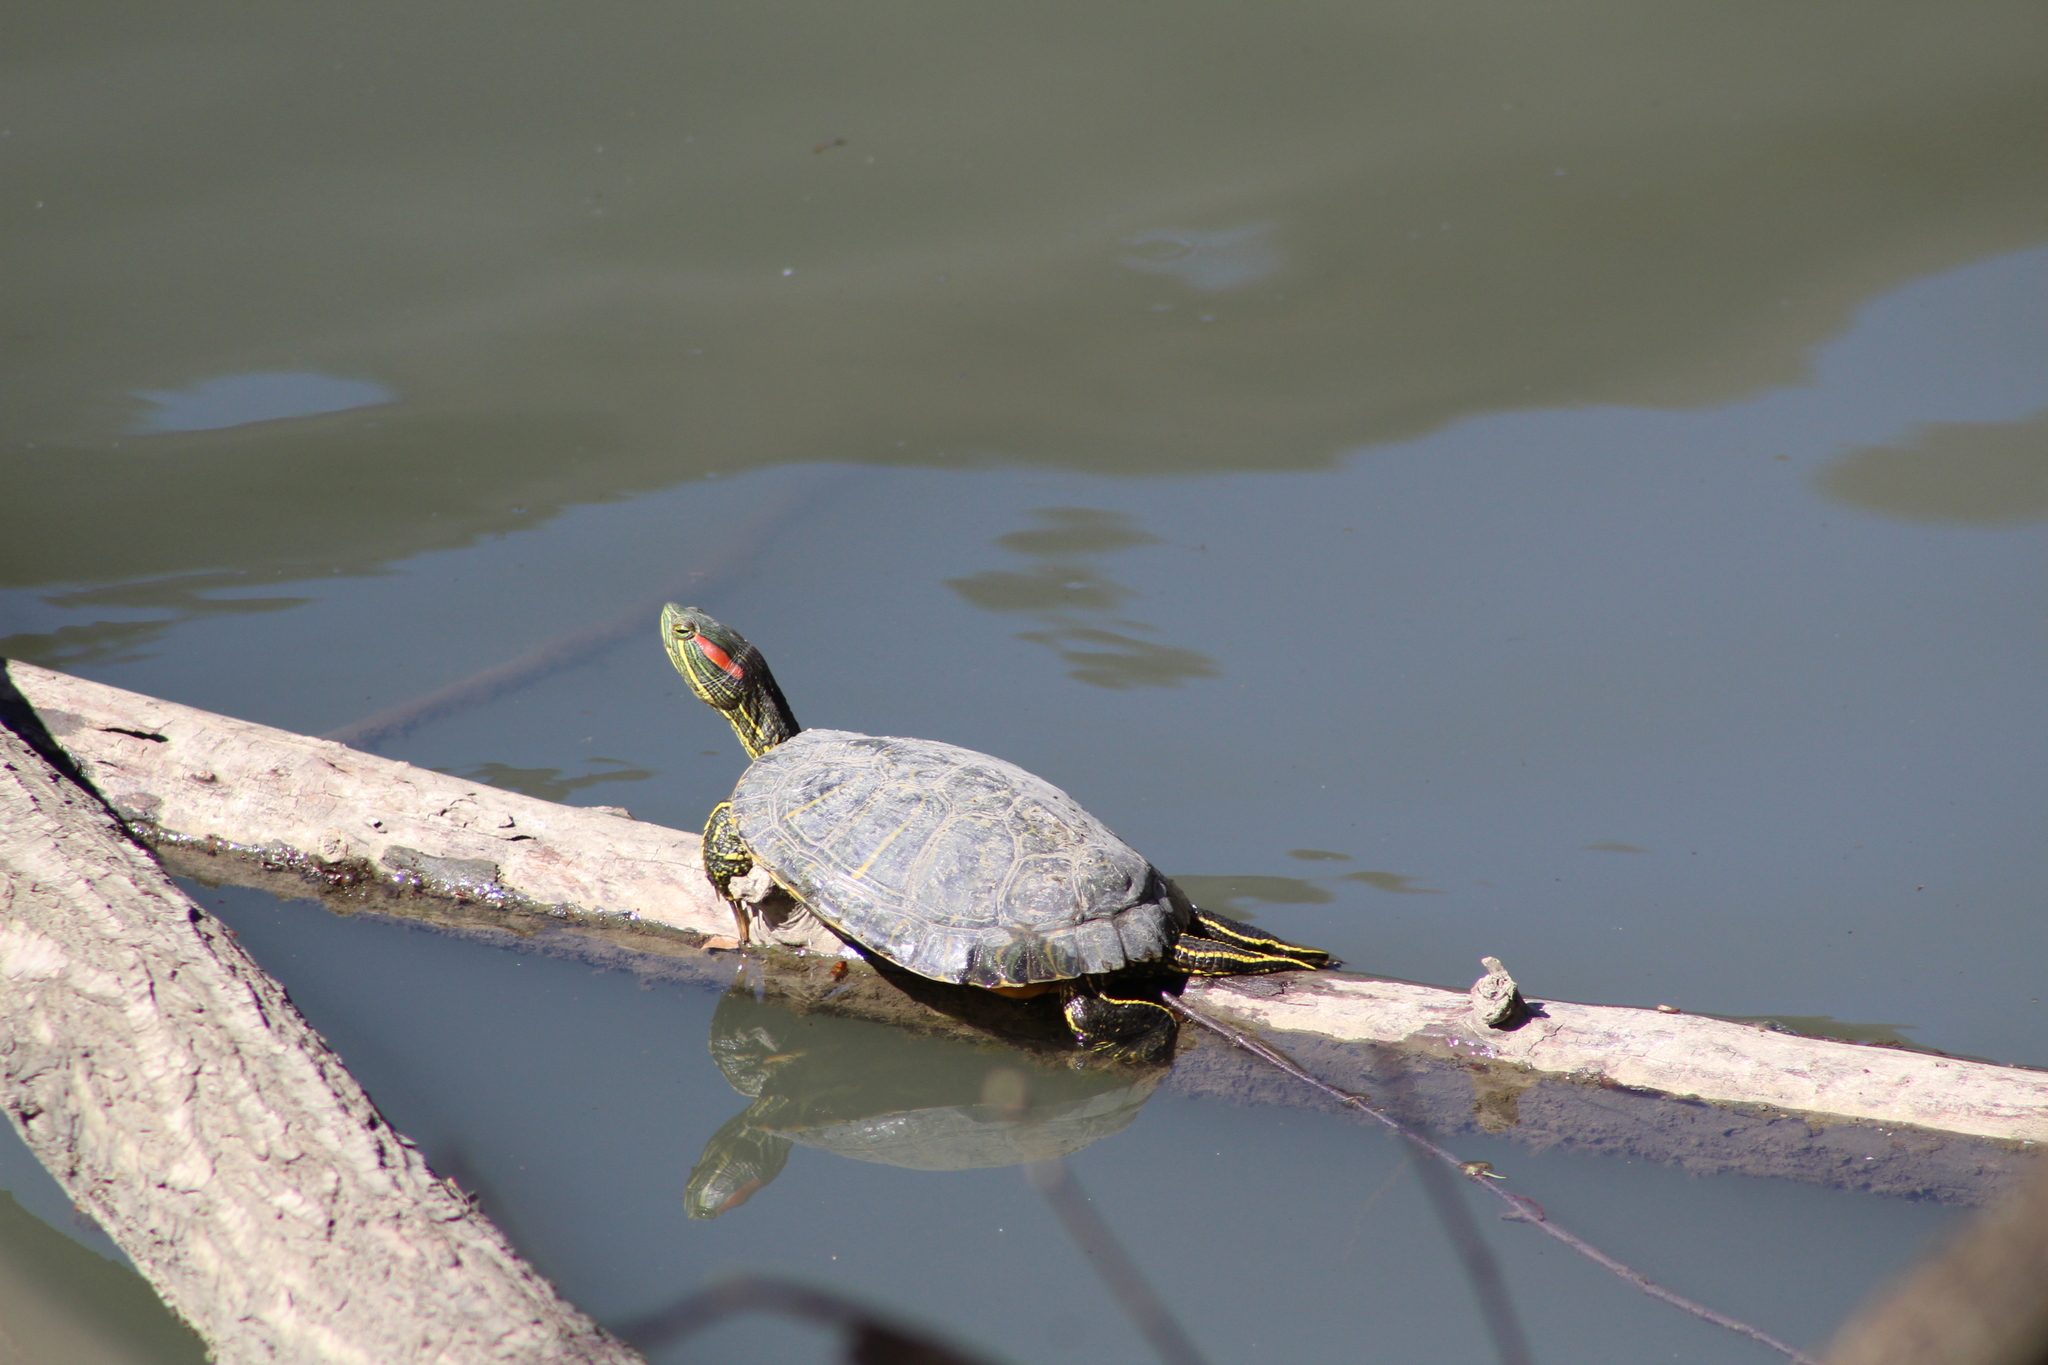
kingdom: Animalia
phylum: Chordata
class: Testudines
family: Emydidae
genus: Trachemys
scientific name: Trachemys scripta
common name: Slider
